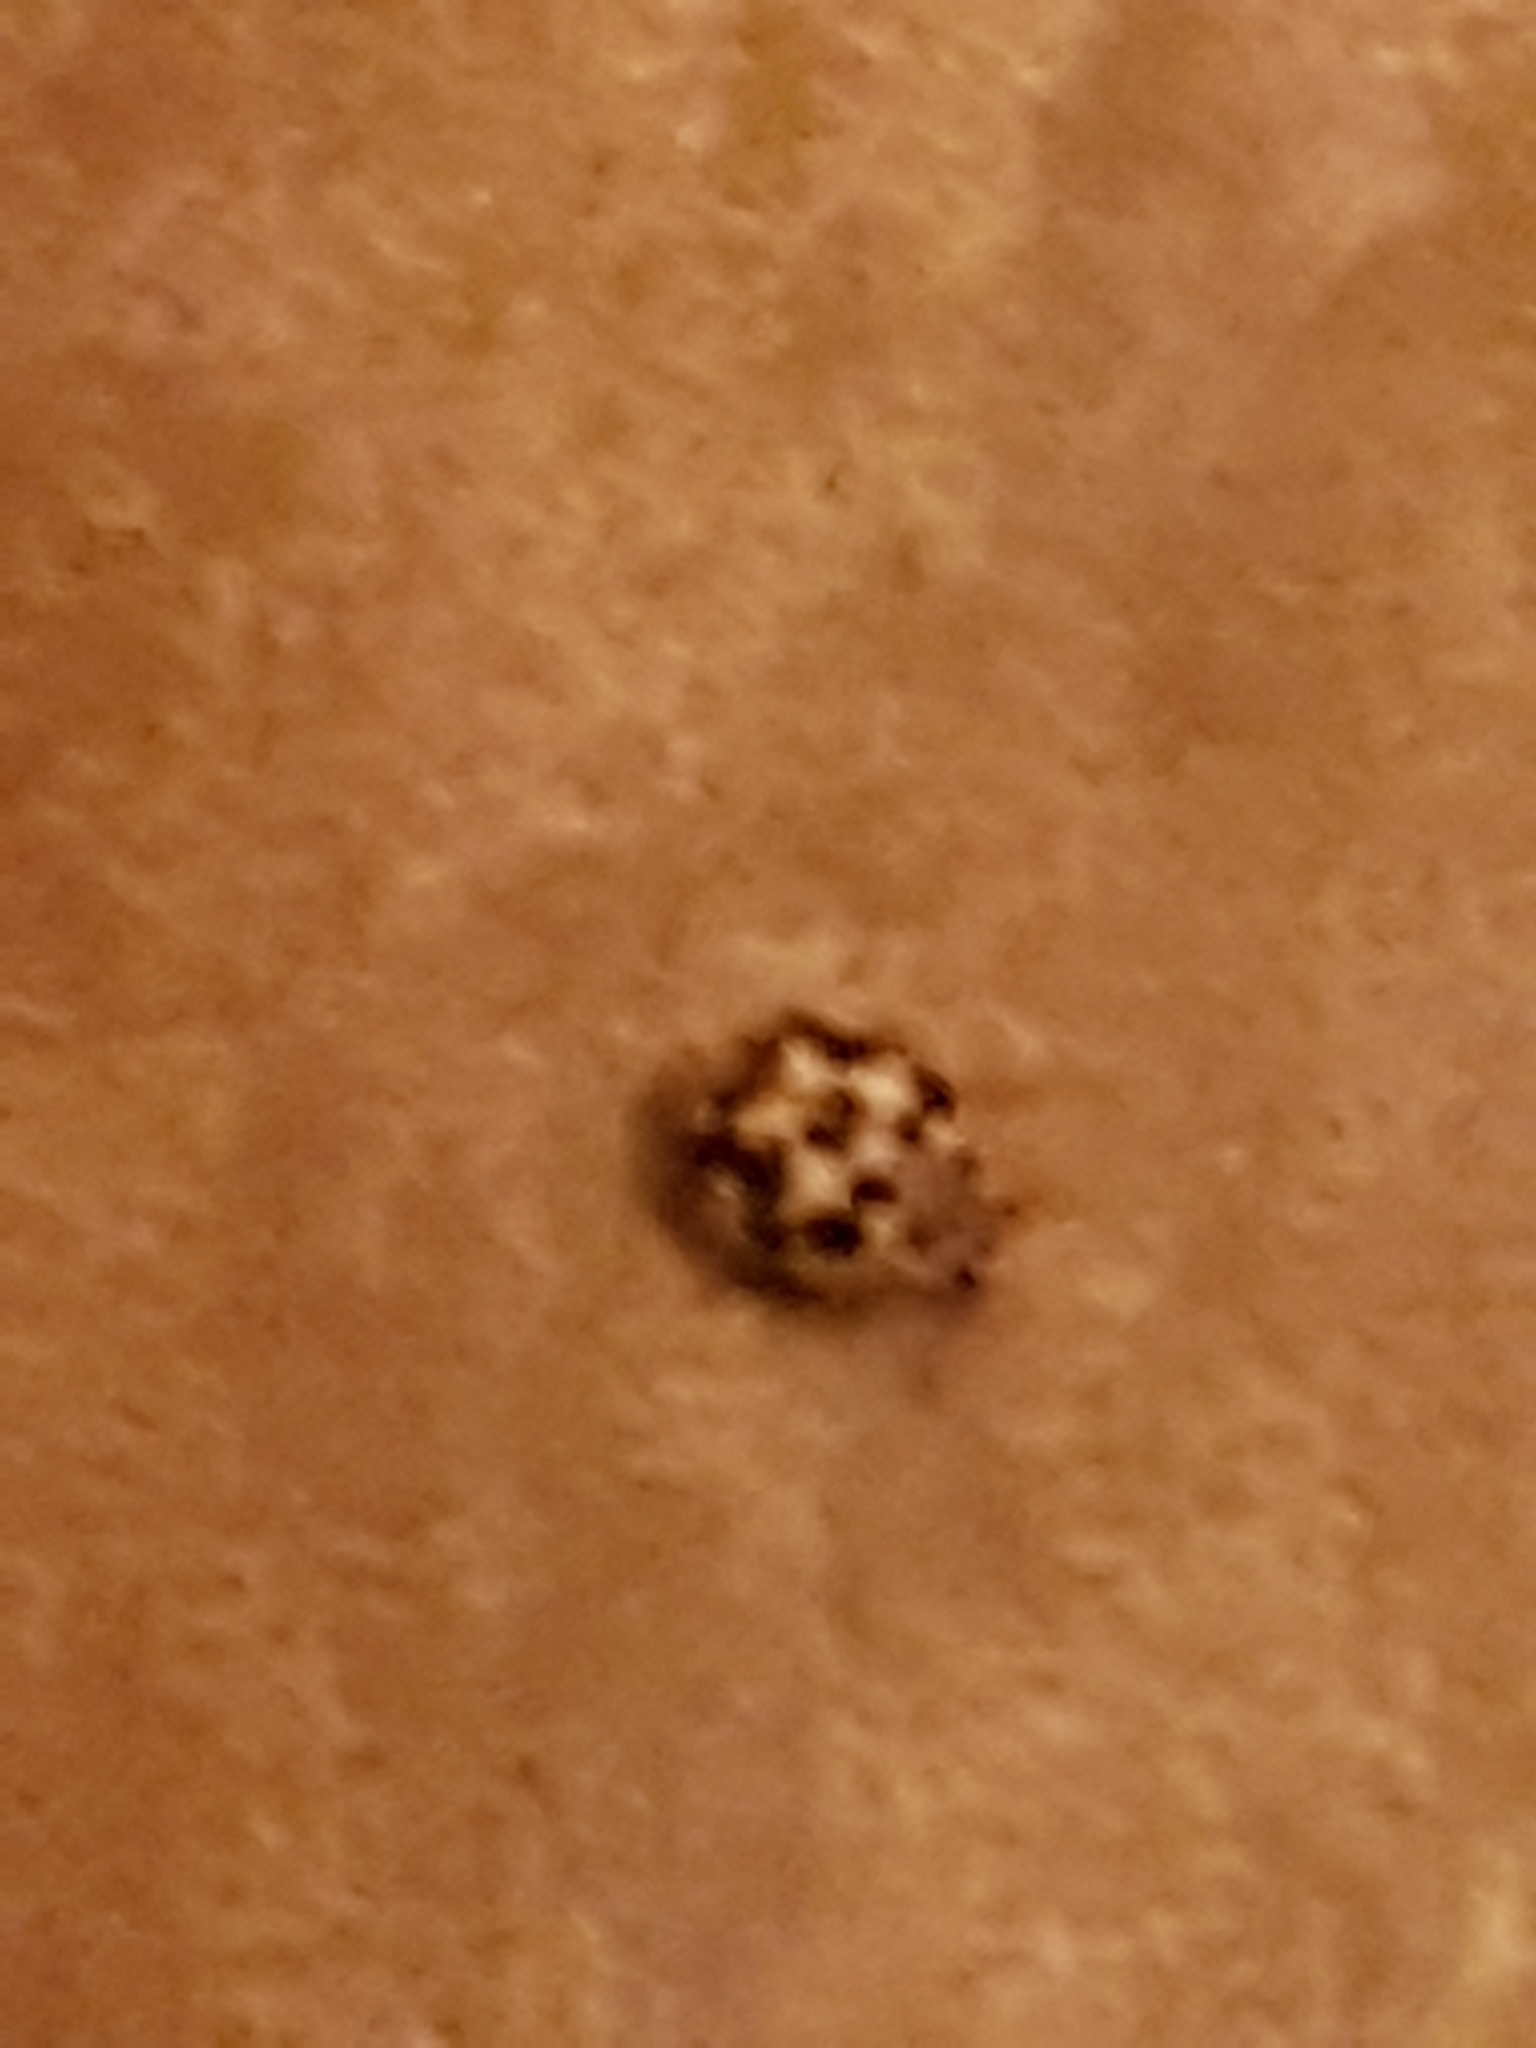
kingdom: Animalia
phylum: Arthropoda
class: Insecta
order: Coleoptera
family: Coccinellidae
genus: Psyllobora
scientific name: Psyllobora vigintimaculata
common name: Ladybird beetle
